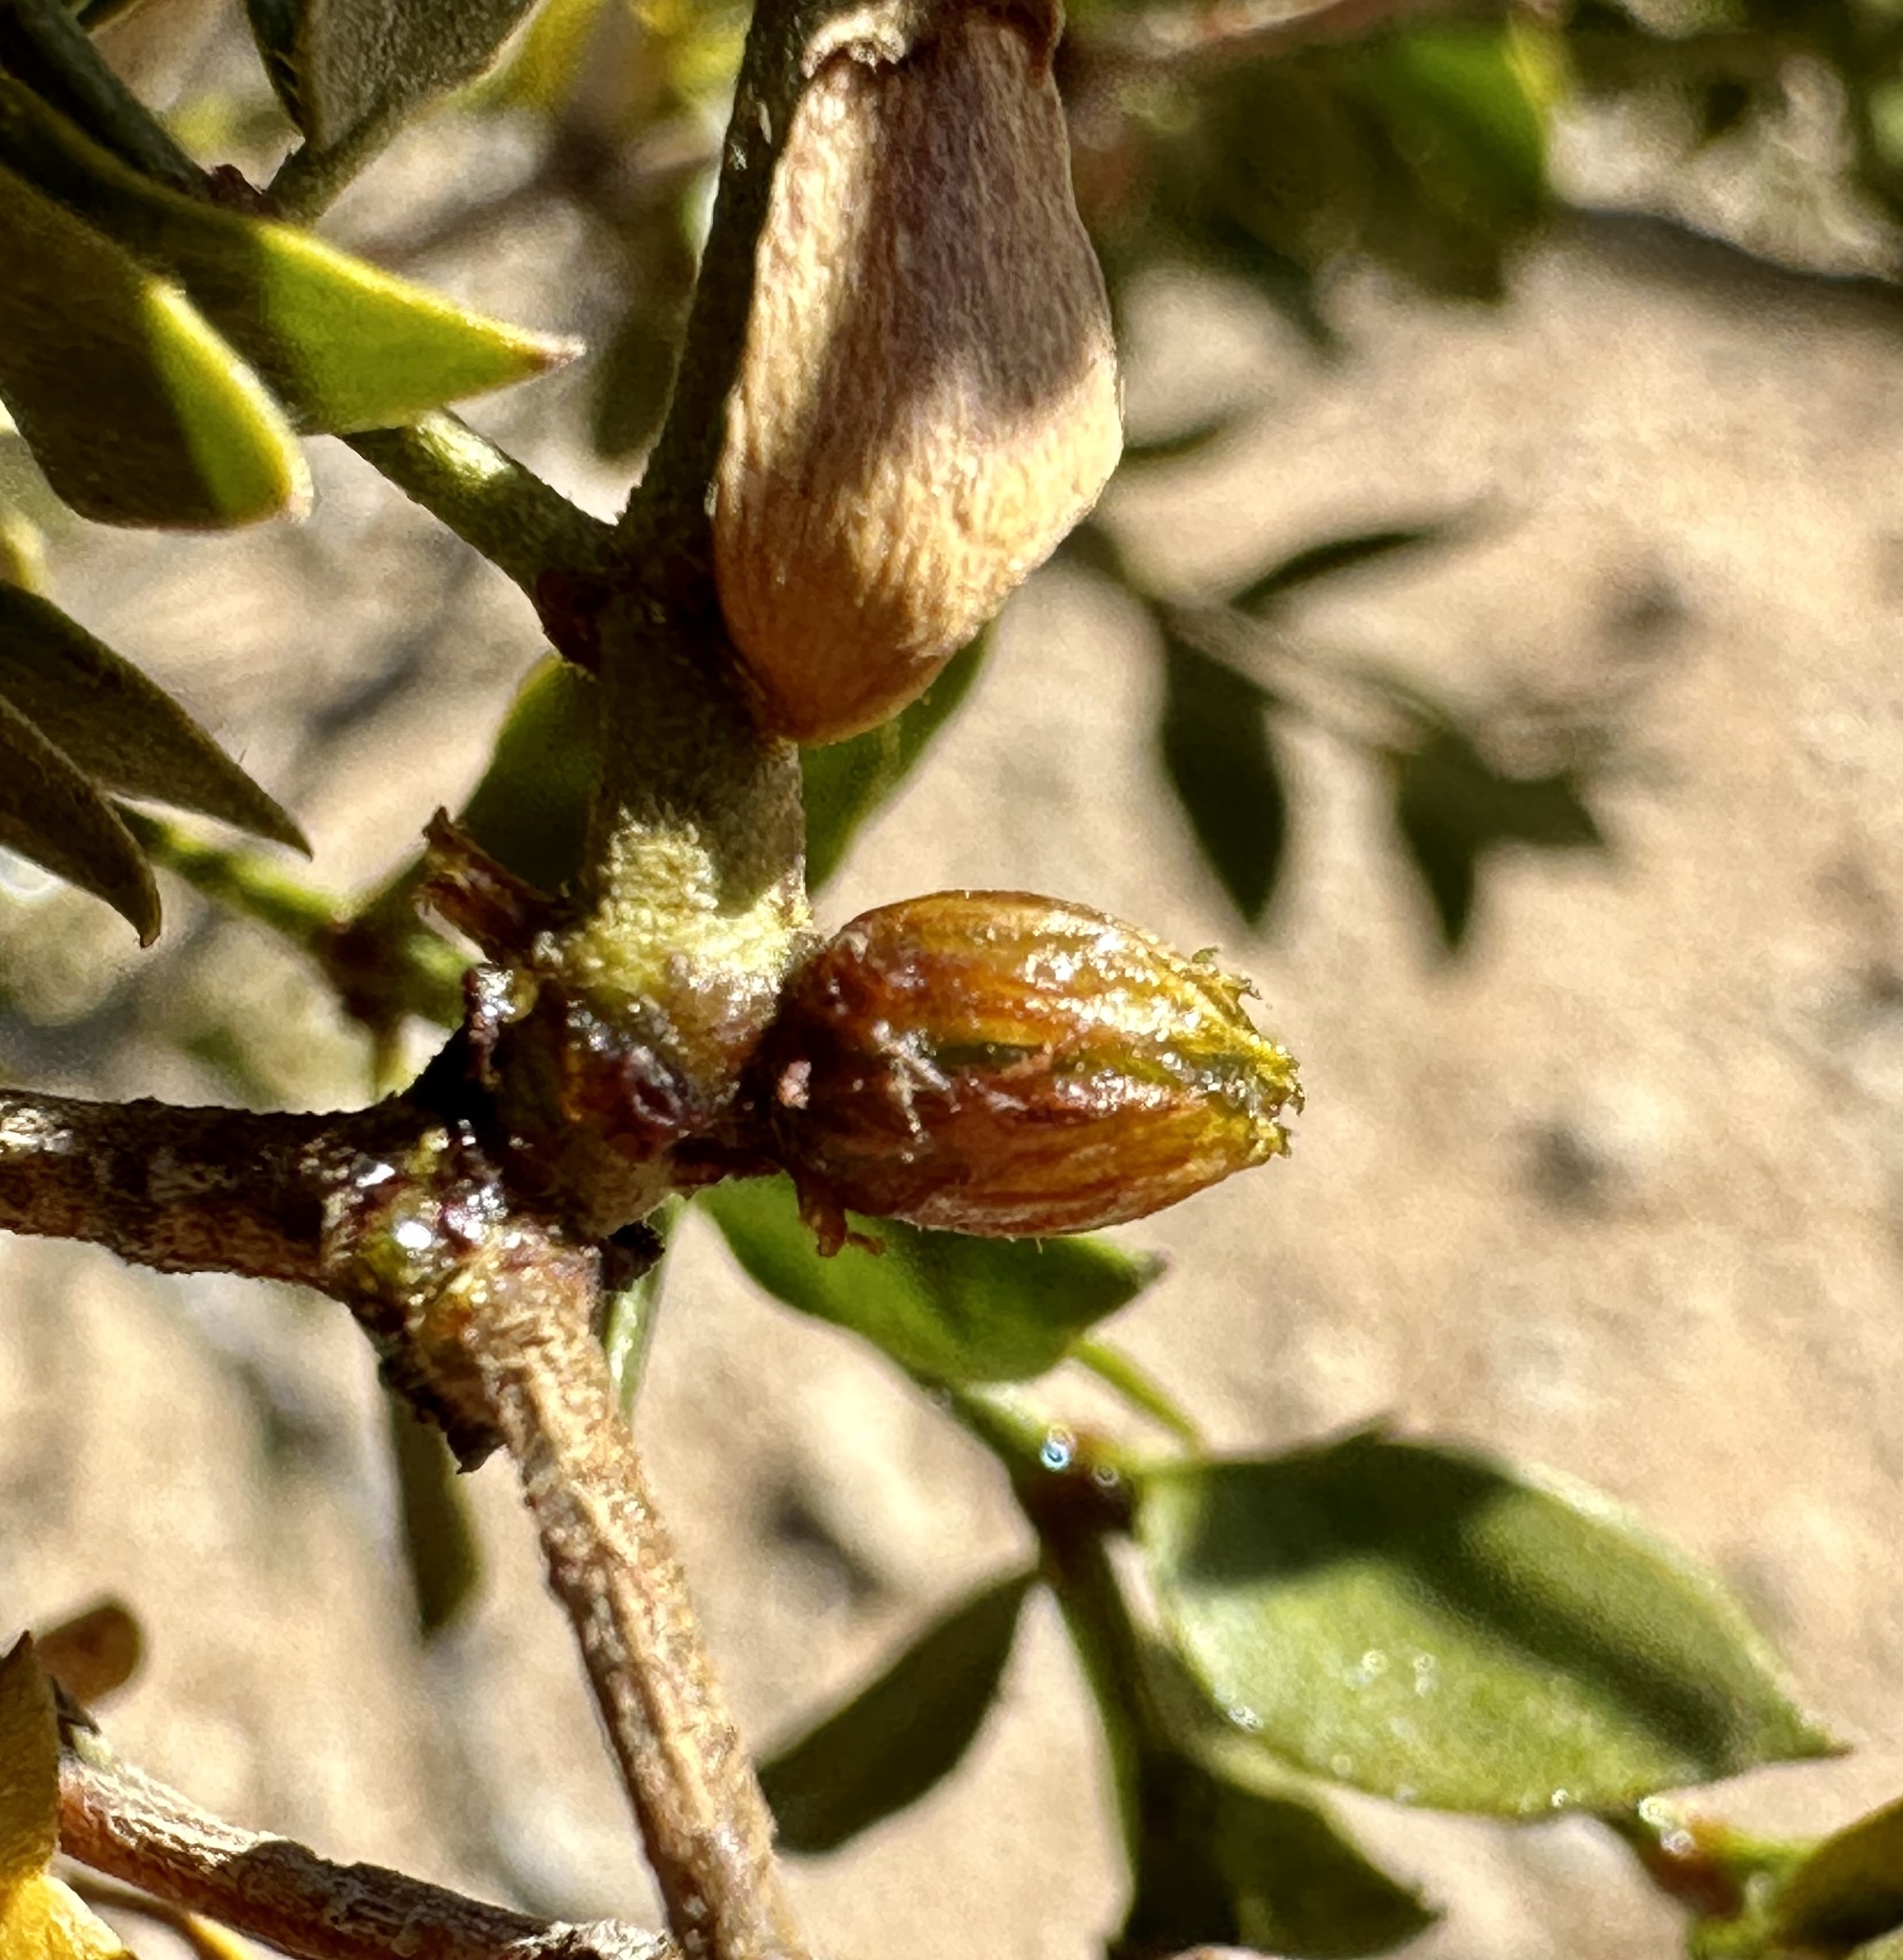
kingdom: Animalia
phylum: Arthropoda
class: Insecta
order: Diptera
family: Cecidomyiidae
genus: Asphondylia
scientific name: Asphondylia resinosa
